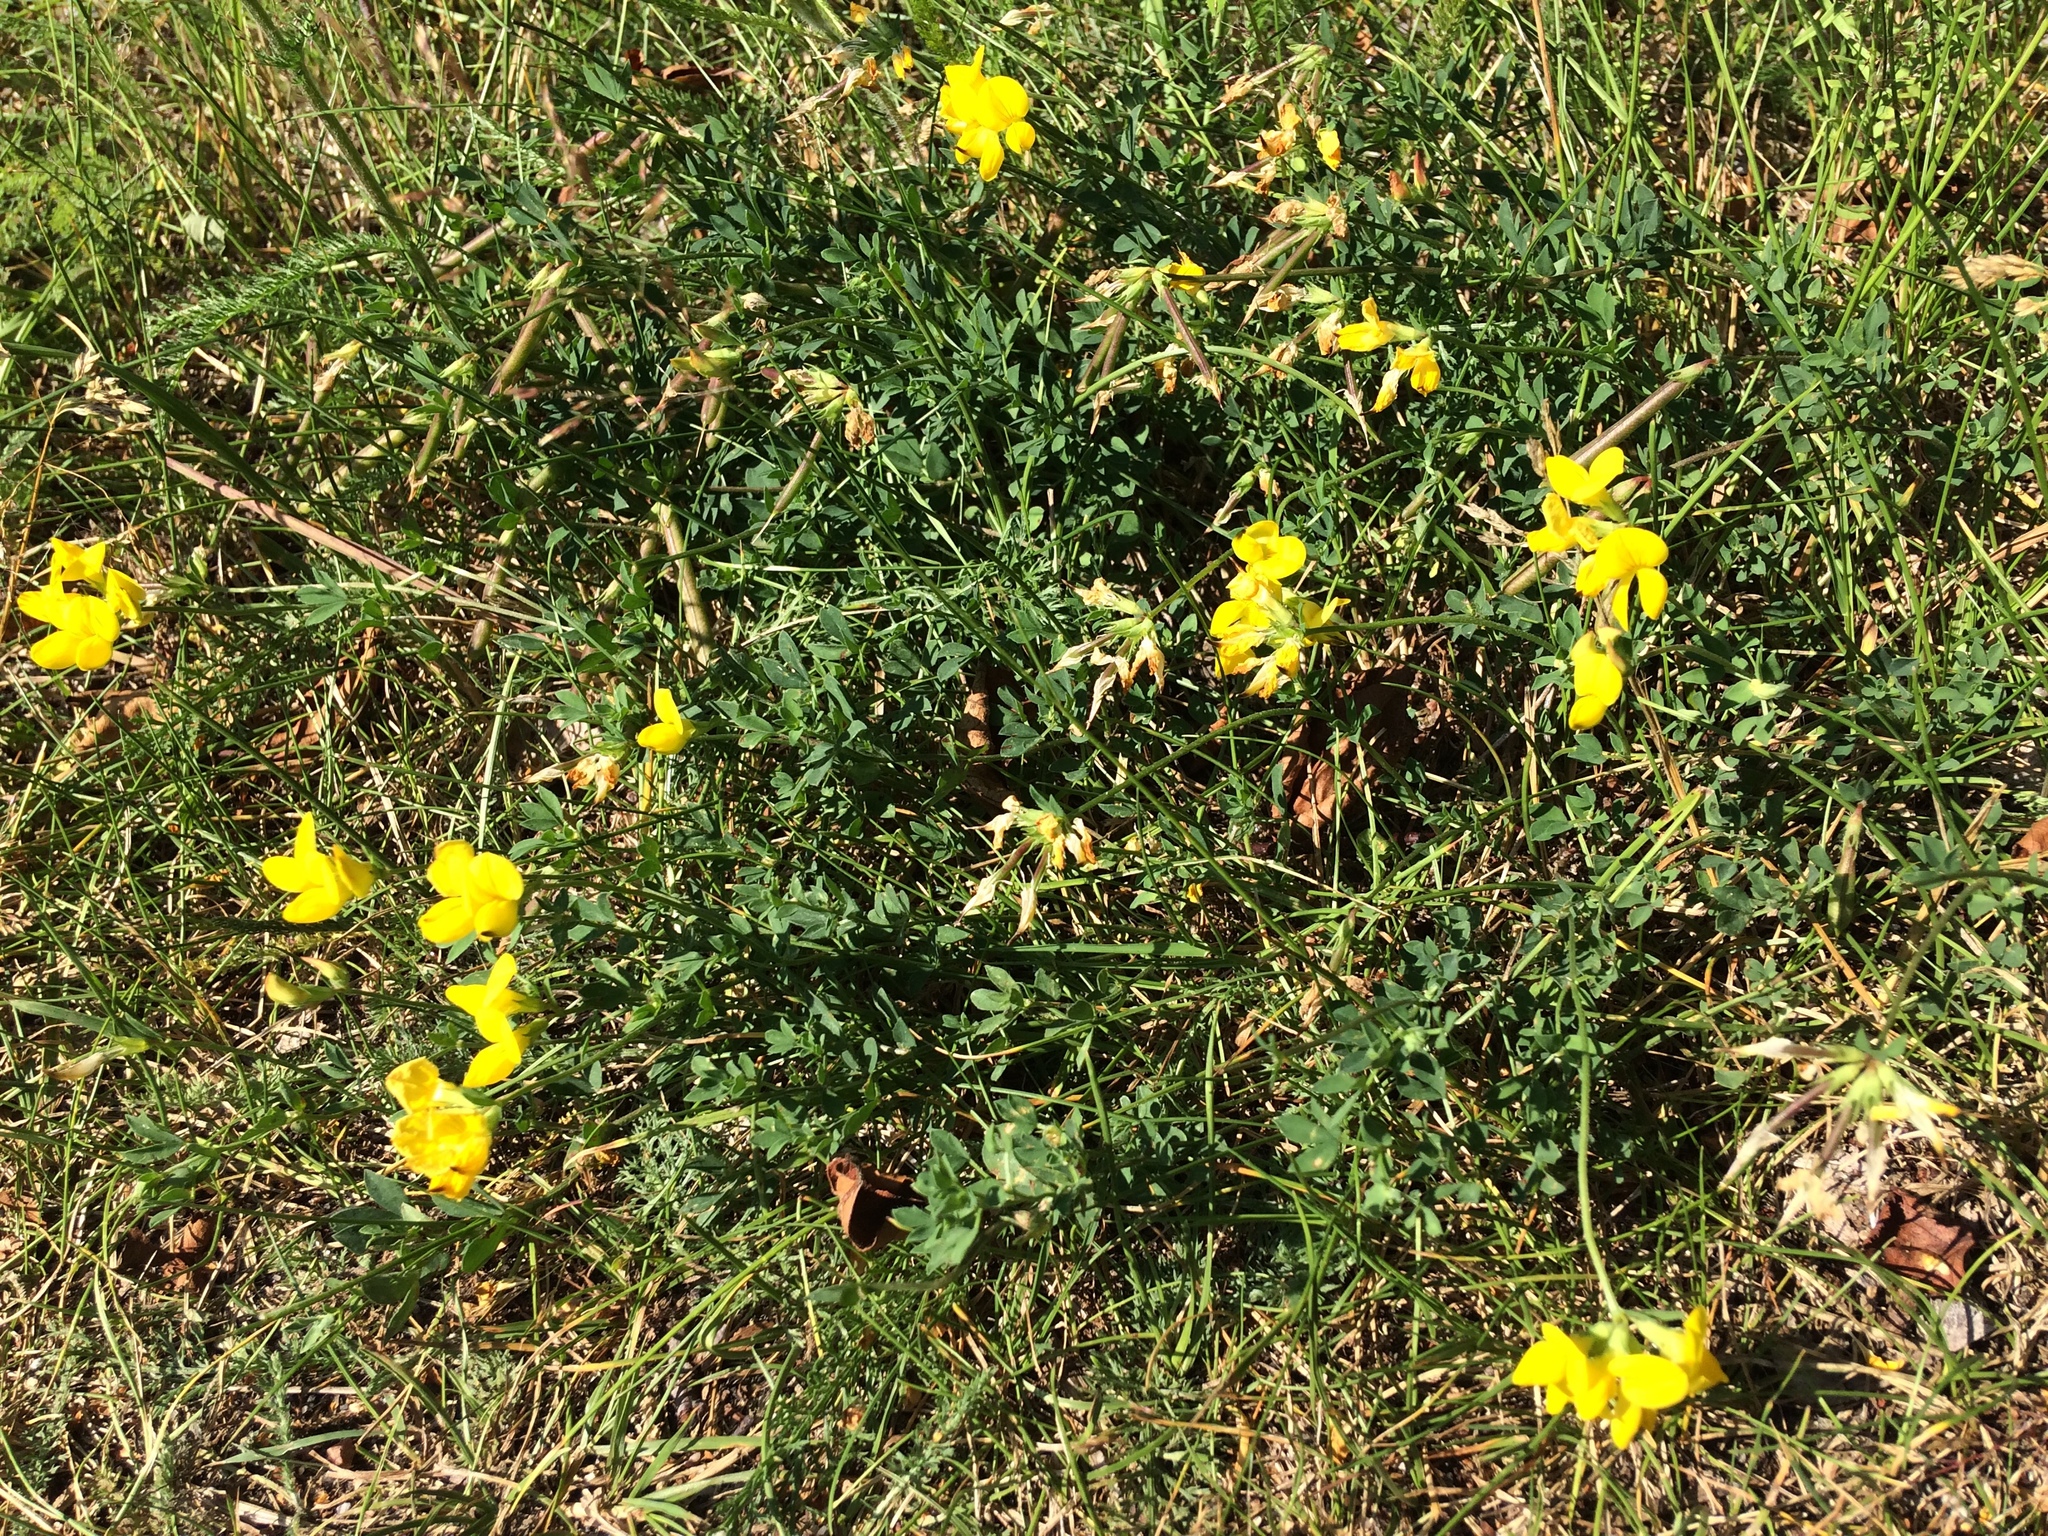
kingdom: Plantae
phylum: Tracheophyta
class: Magnoliopsida
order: Fabales
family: Fabaceae
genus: Lotus
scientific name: Lotus corniculatus
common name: Common bird's-foot-trefoil
